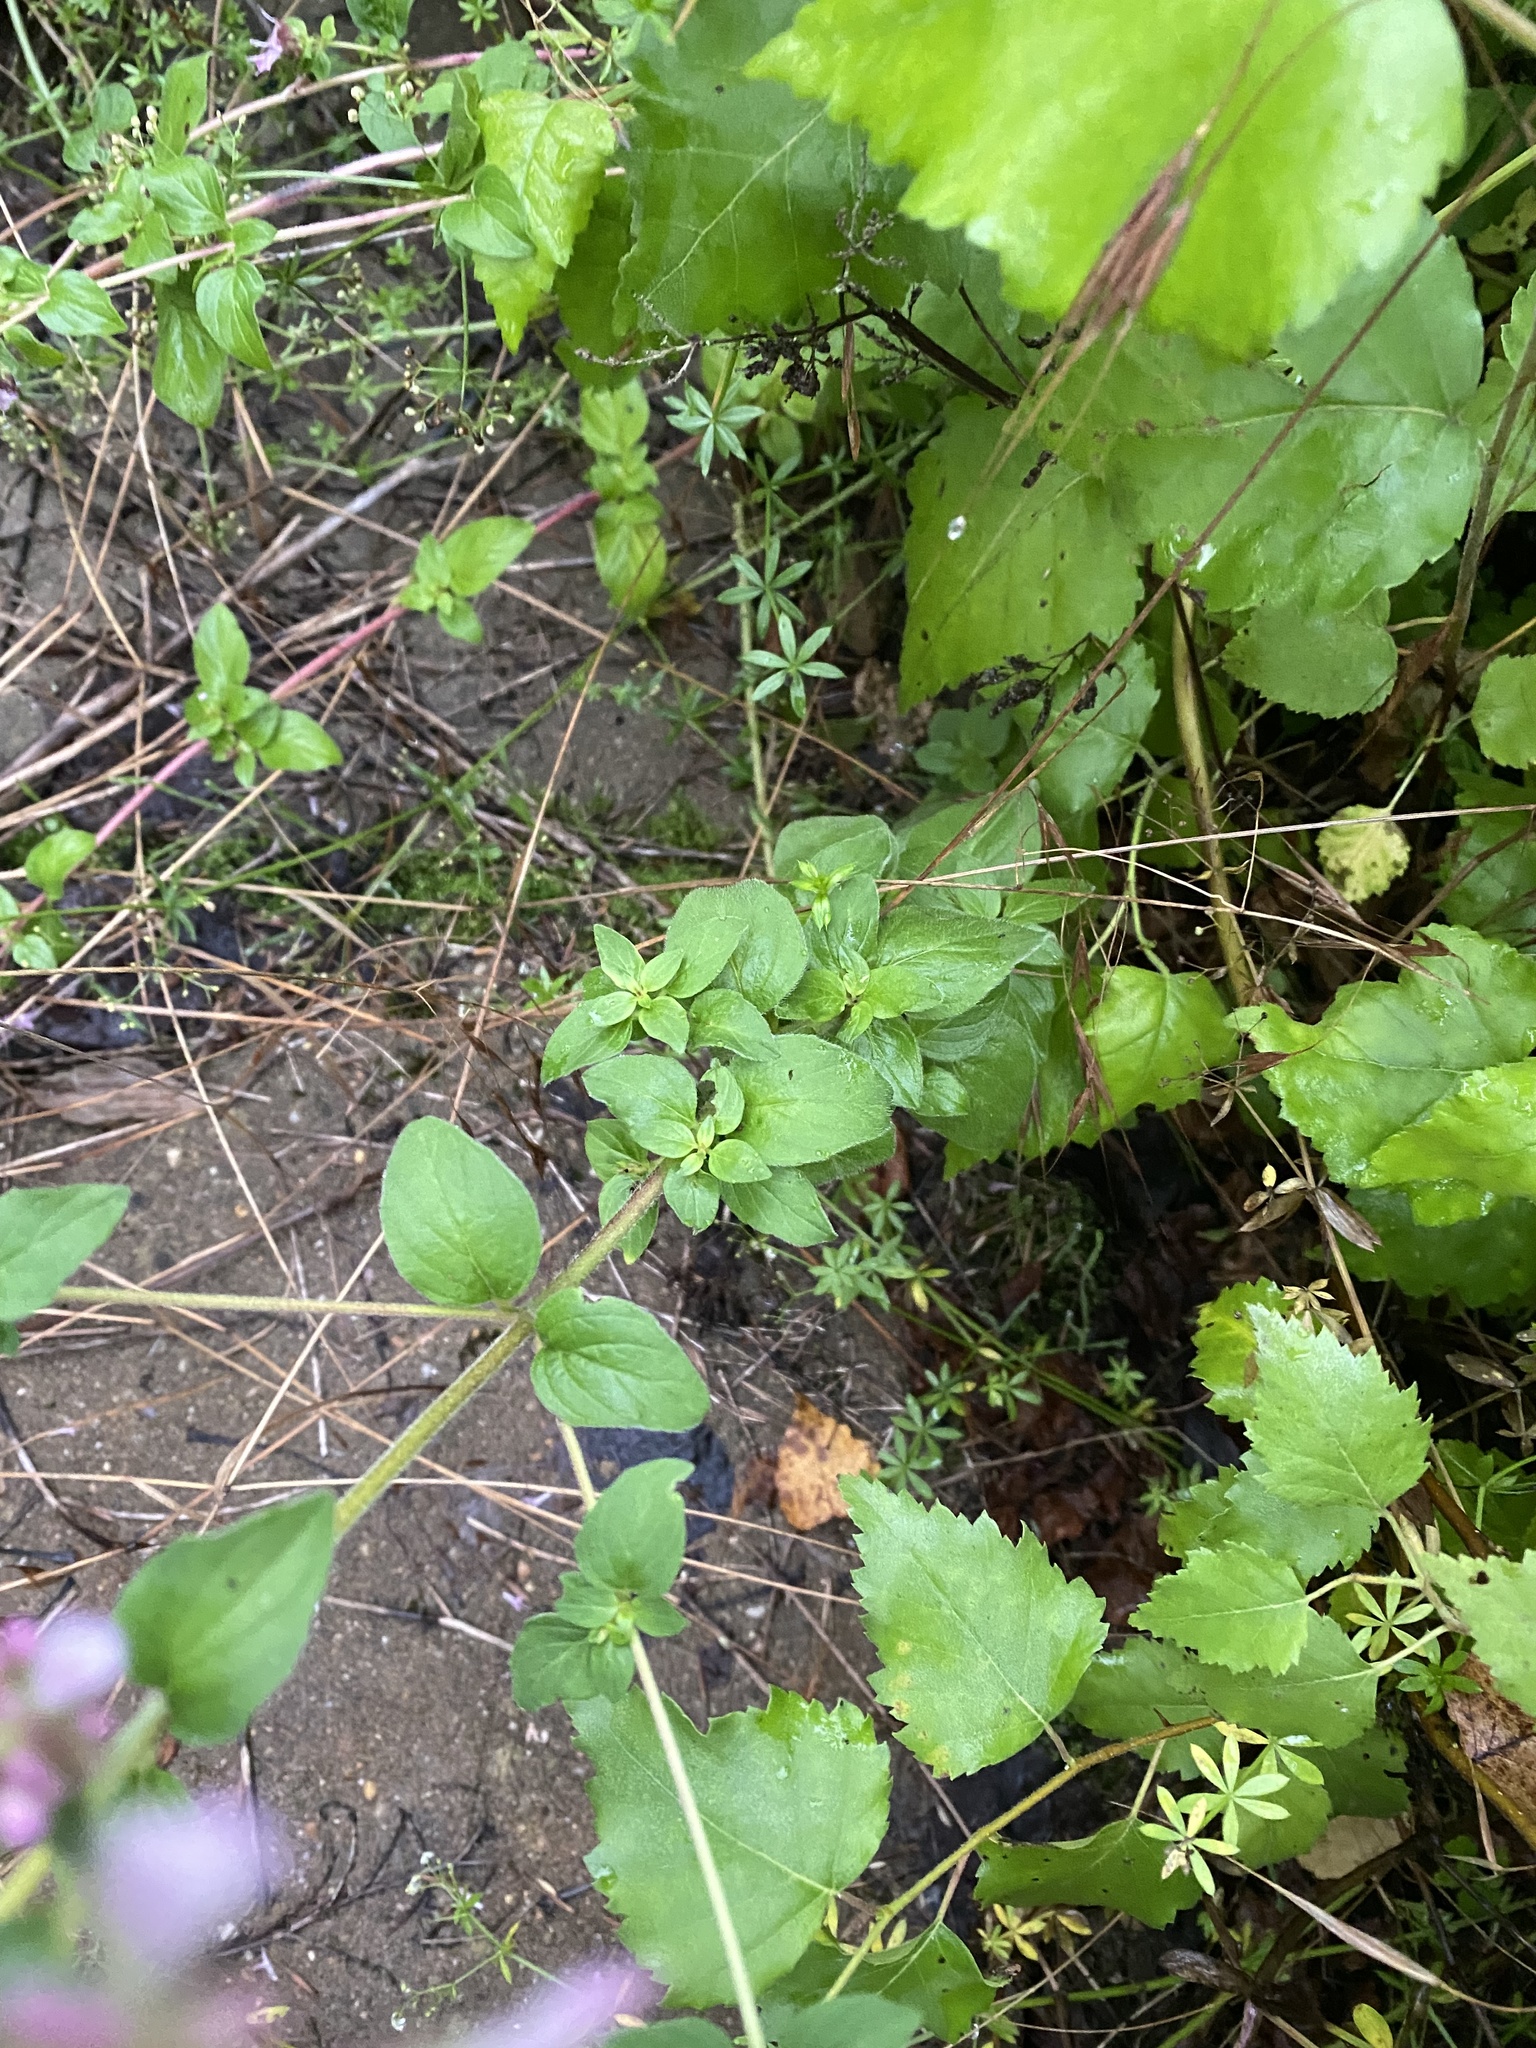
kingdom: Plantae
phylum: Tracheophyta
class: Magnoliopsida
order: Lamiales
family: Lamiaceae
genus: Origanum
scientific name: Origanum vulgare
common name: Wild marjoram
